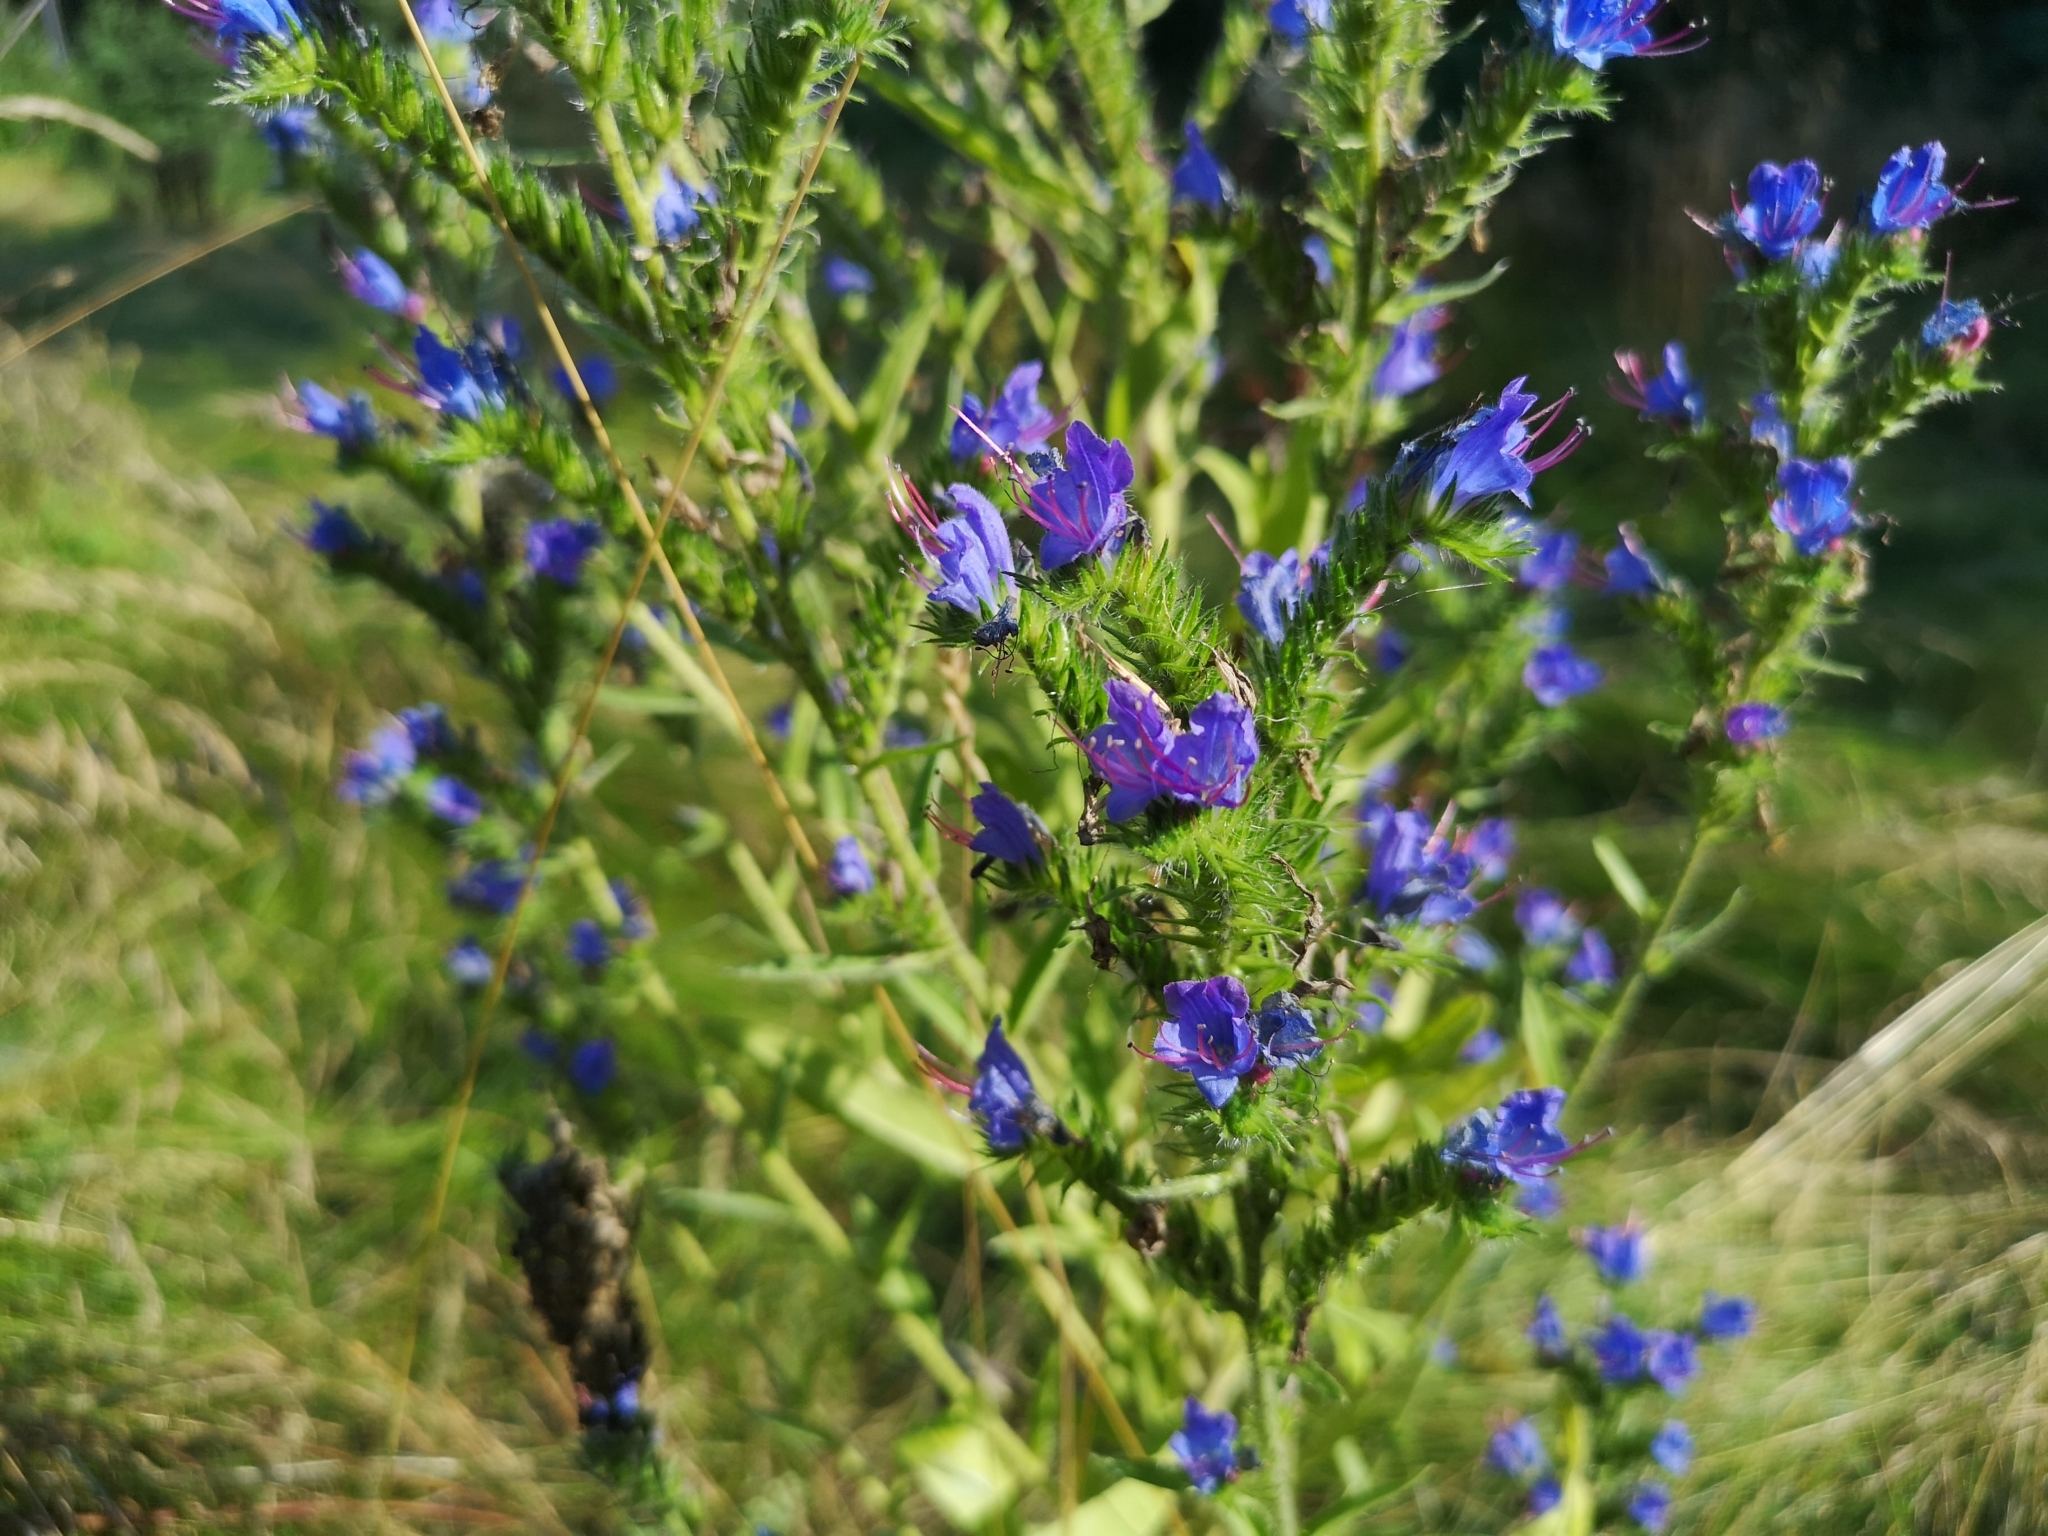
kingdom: Plantae
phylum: Tracheophyta
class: Magnoliopsida
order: Boraginales
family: Boraginaceae
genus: Echium
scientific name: Echium vulgare
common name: Common viper's bugloss
